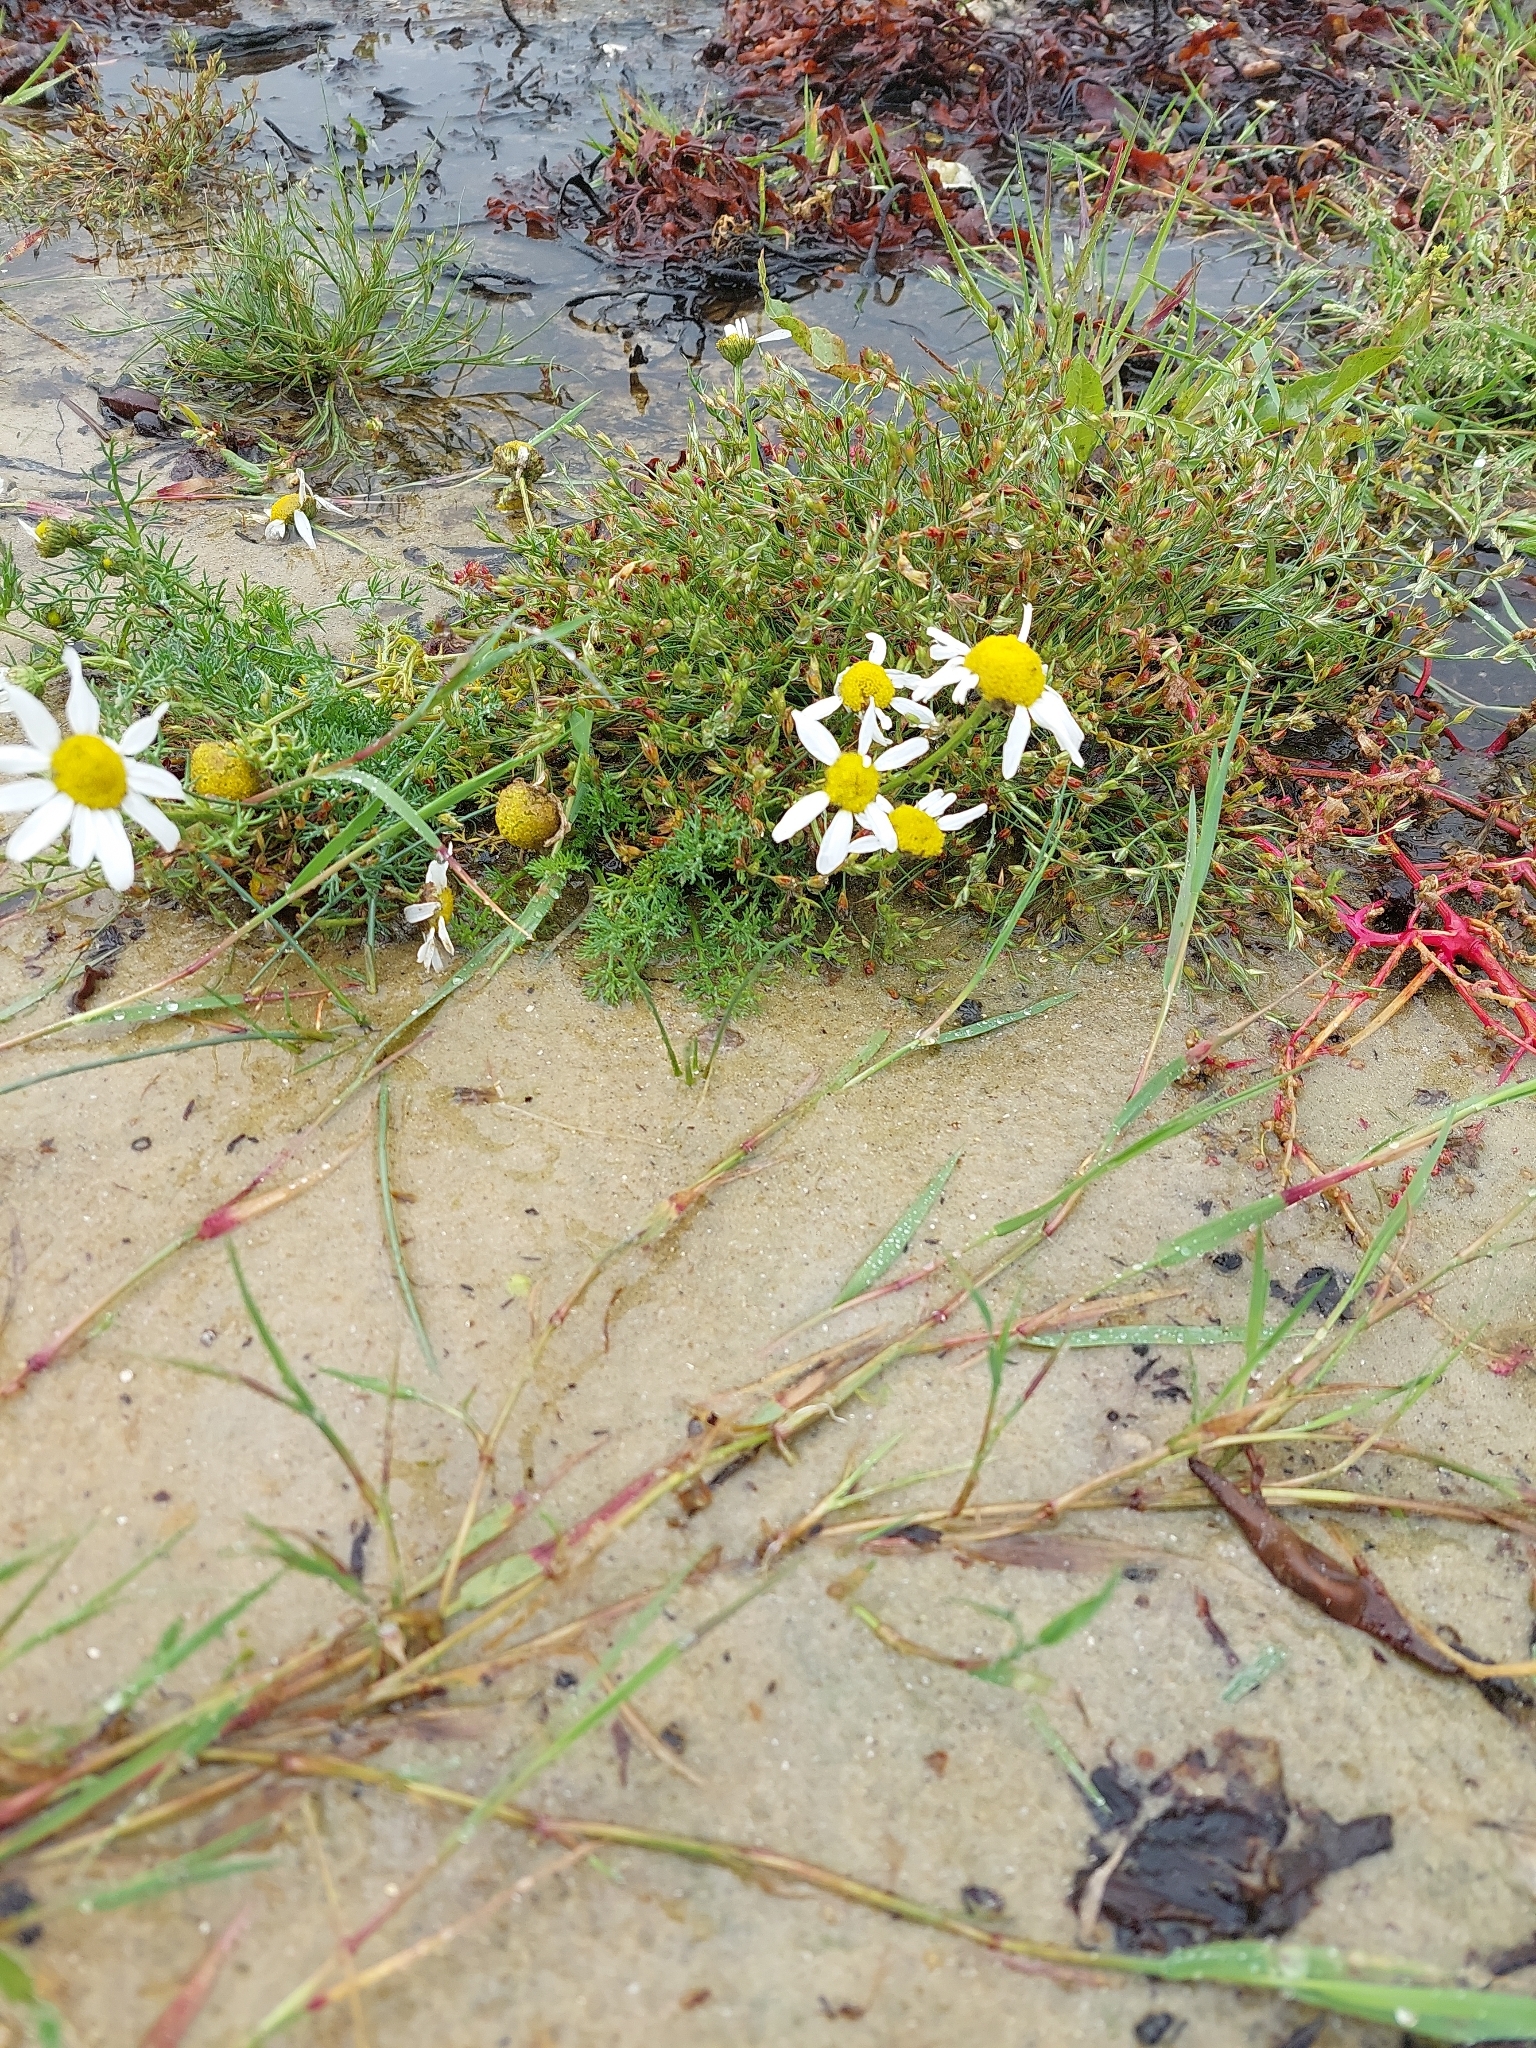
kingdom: Plantae
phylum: Tracheophyta
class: Magnoliopsida
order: Asterales
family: Asteraceae
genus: Tripleurospermum
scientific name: Tripleurospermum maritimum
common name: Sea mayweed
